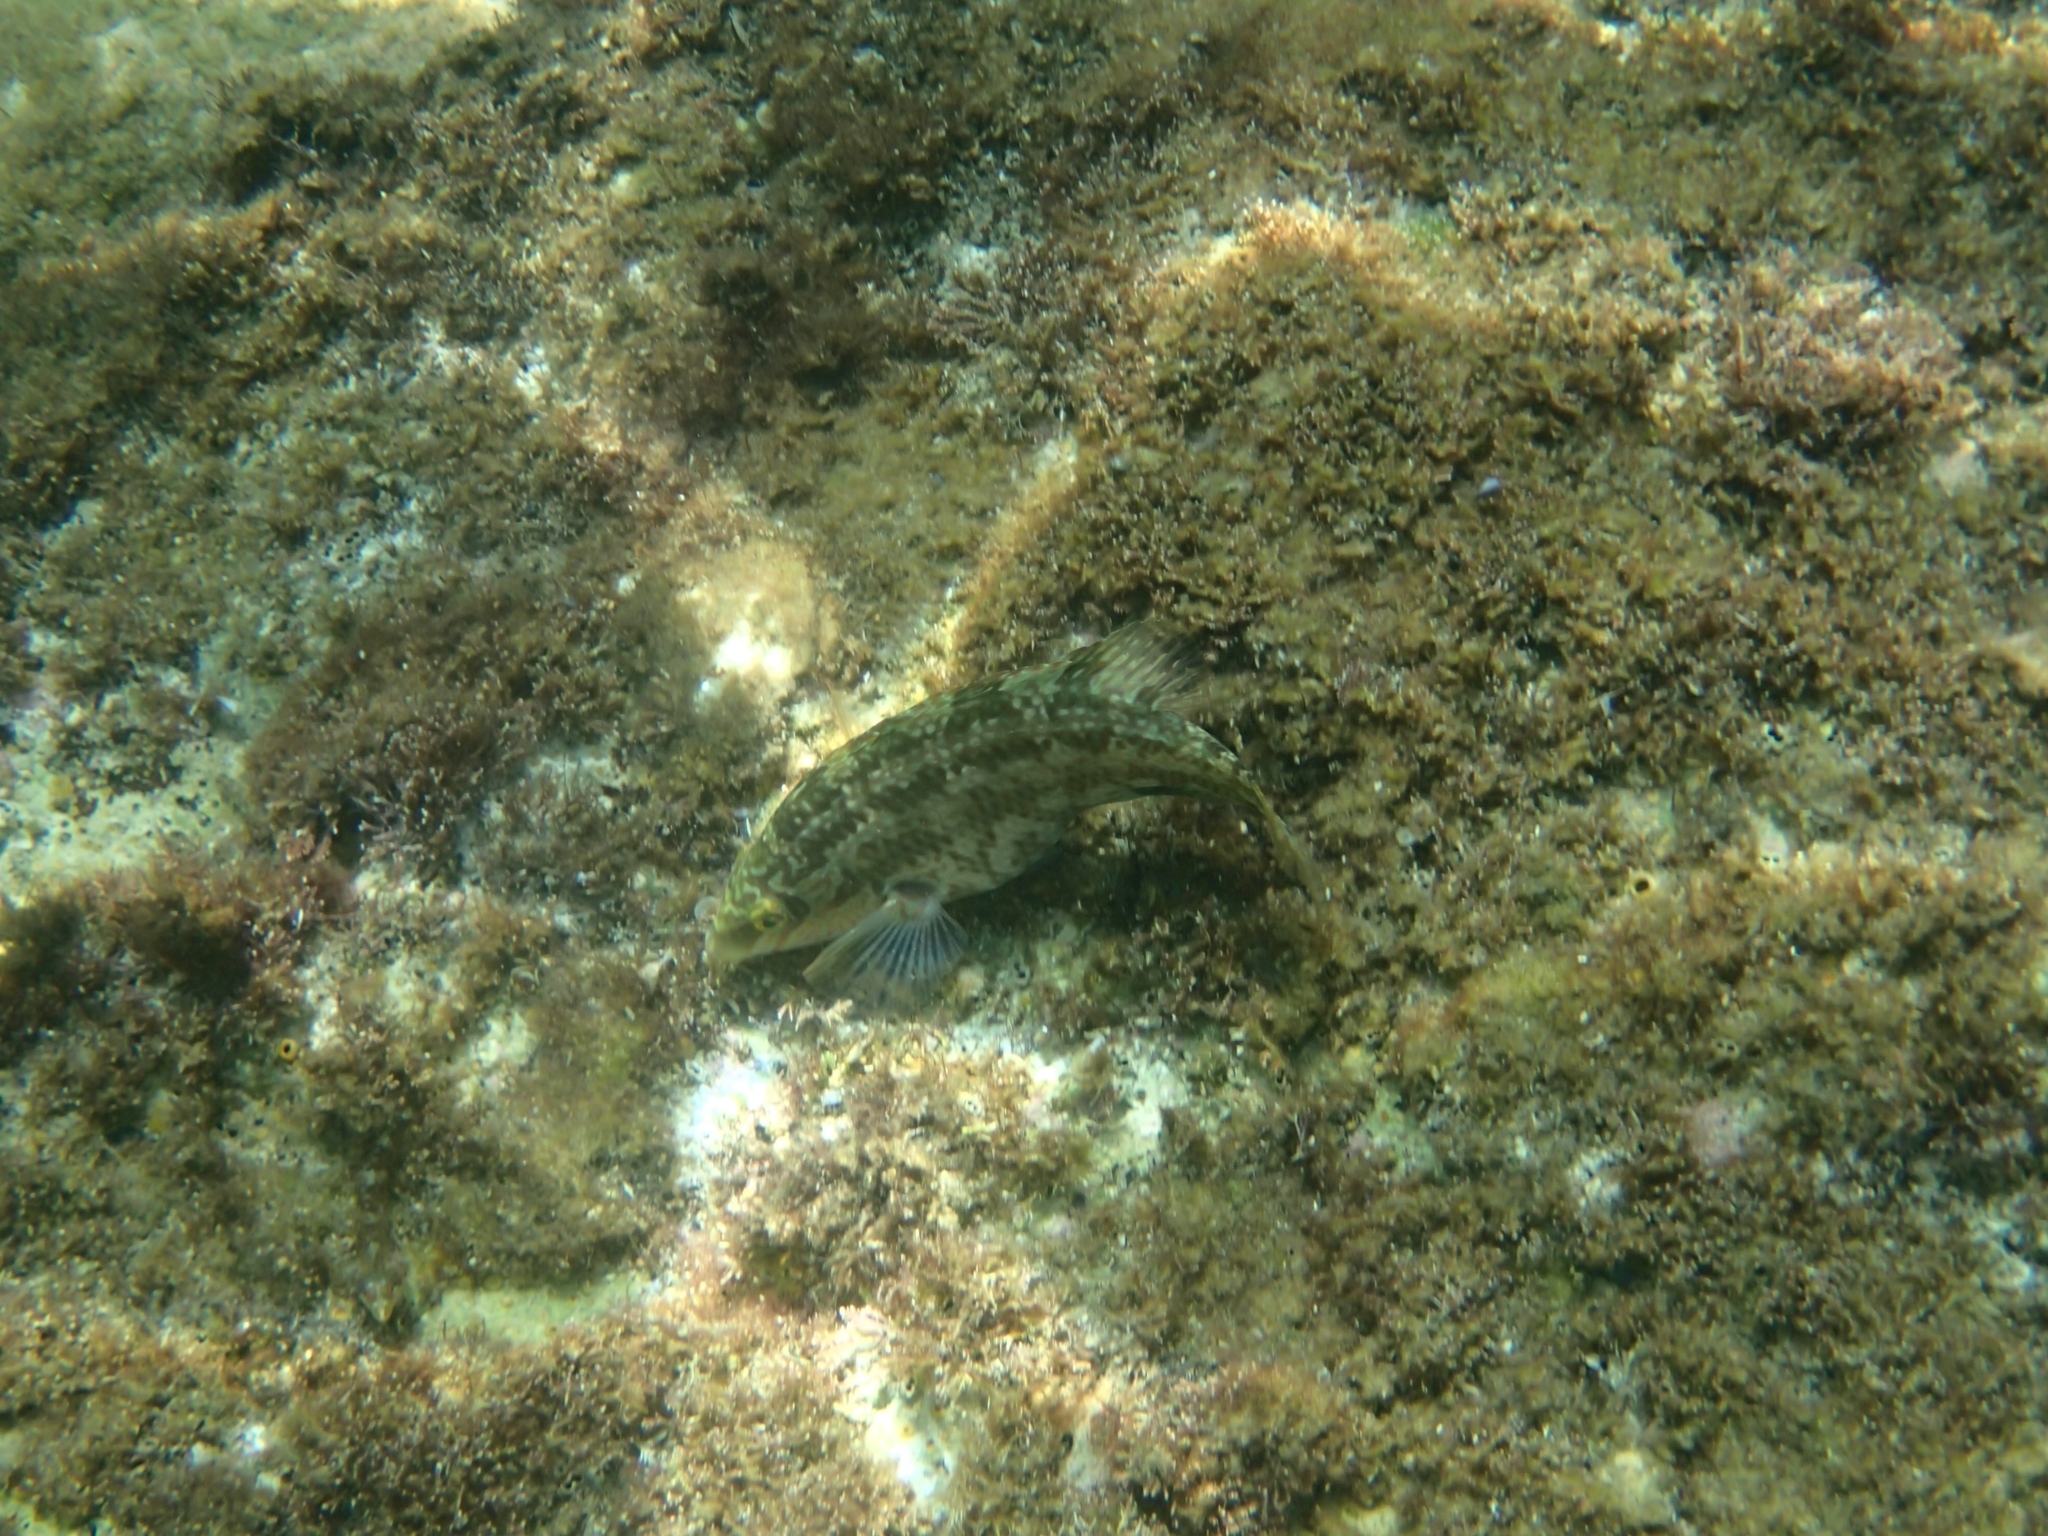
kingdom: Animalia
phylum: Chordata
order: Perciformes
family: Labridae
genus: Symphodus
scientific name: Symphodus melops
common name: Corkwing
